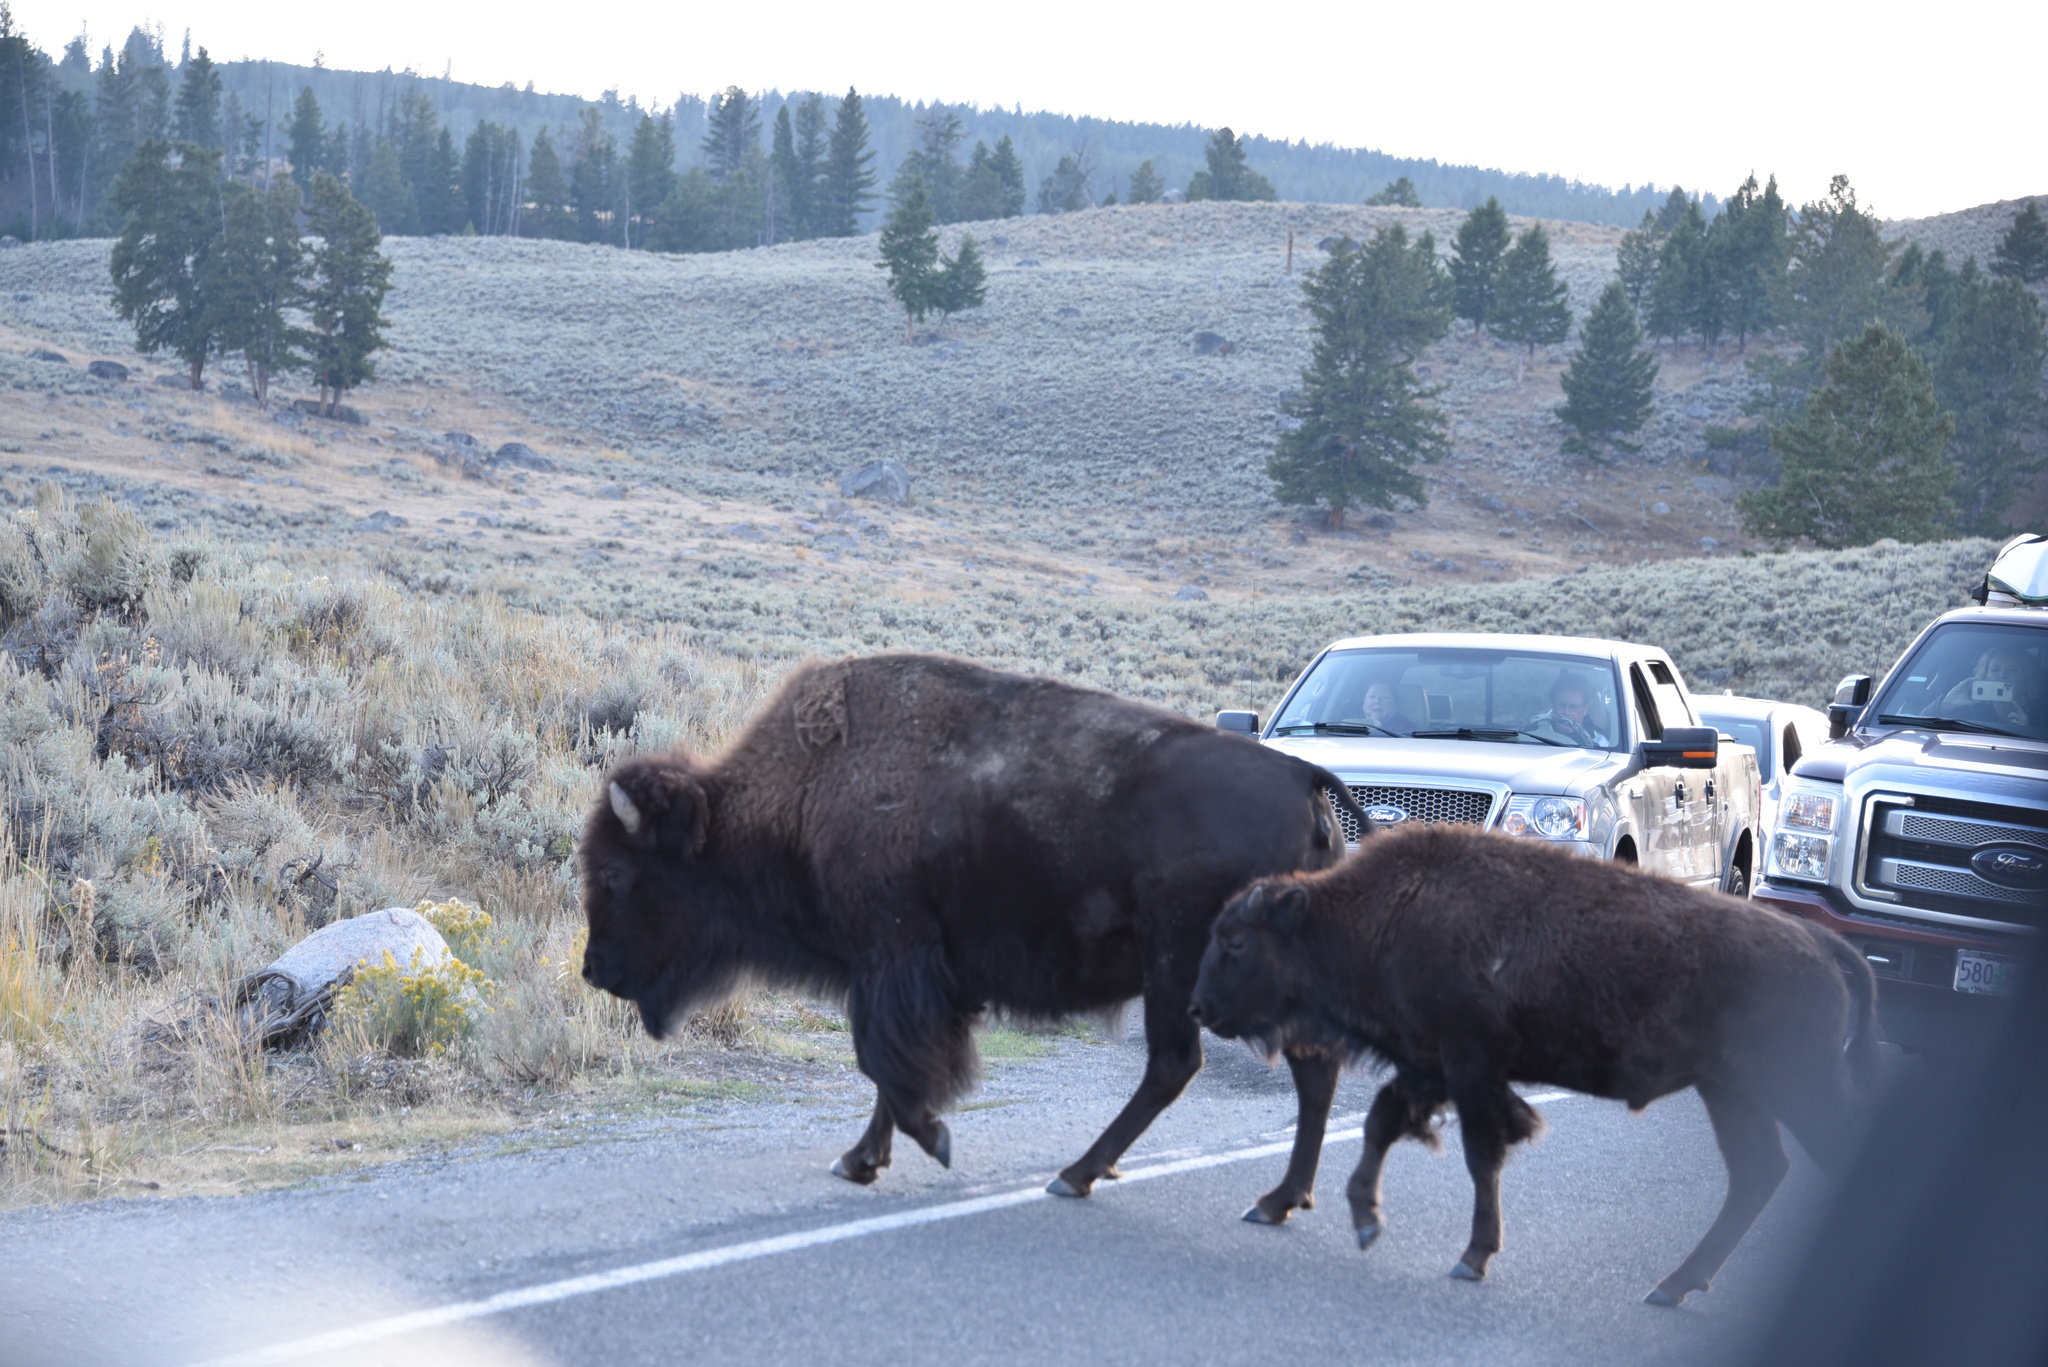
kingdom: Animalia
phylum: Chordata
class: Mammalia
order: Artiodactyla
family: Bovidae
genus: Bison
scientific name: Bison bison
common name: American bison
